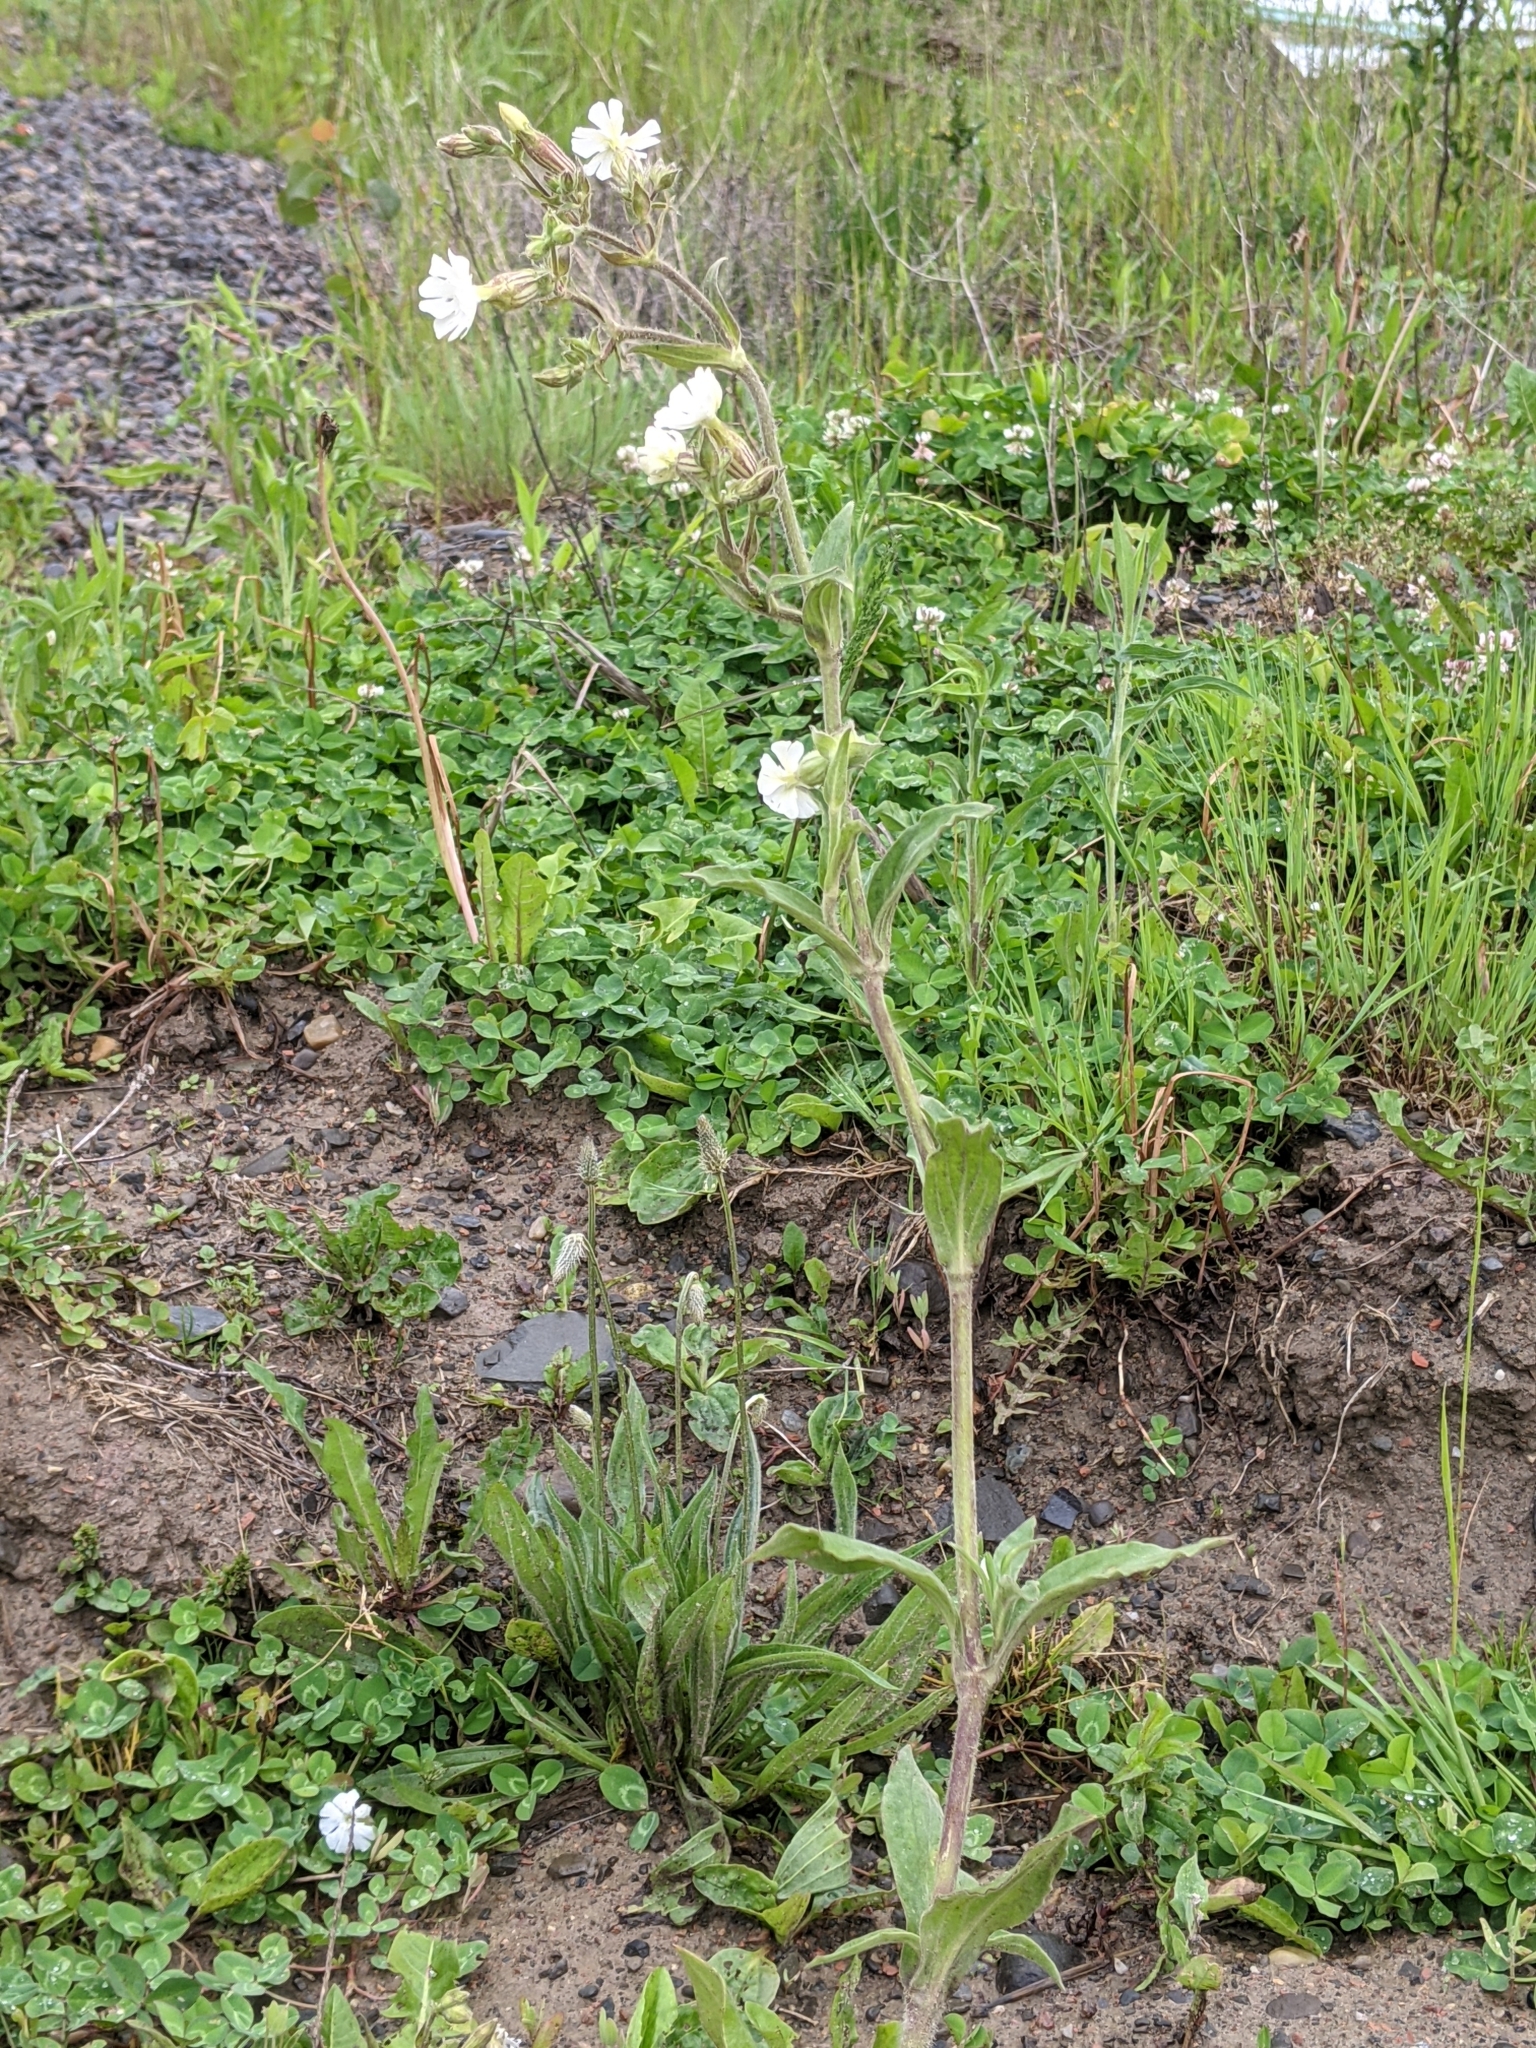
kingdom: Plantae
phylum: Tracheophyta
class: Magnoliopsida
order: Caryophyllales
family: Caryophyllaceae
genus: Silene
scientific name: Silene latifolia
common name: White campion
